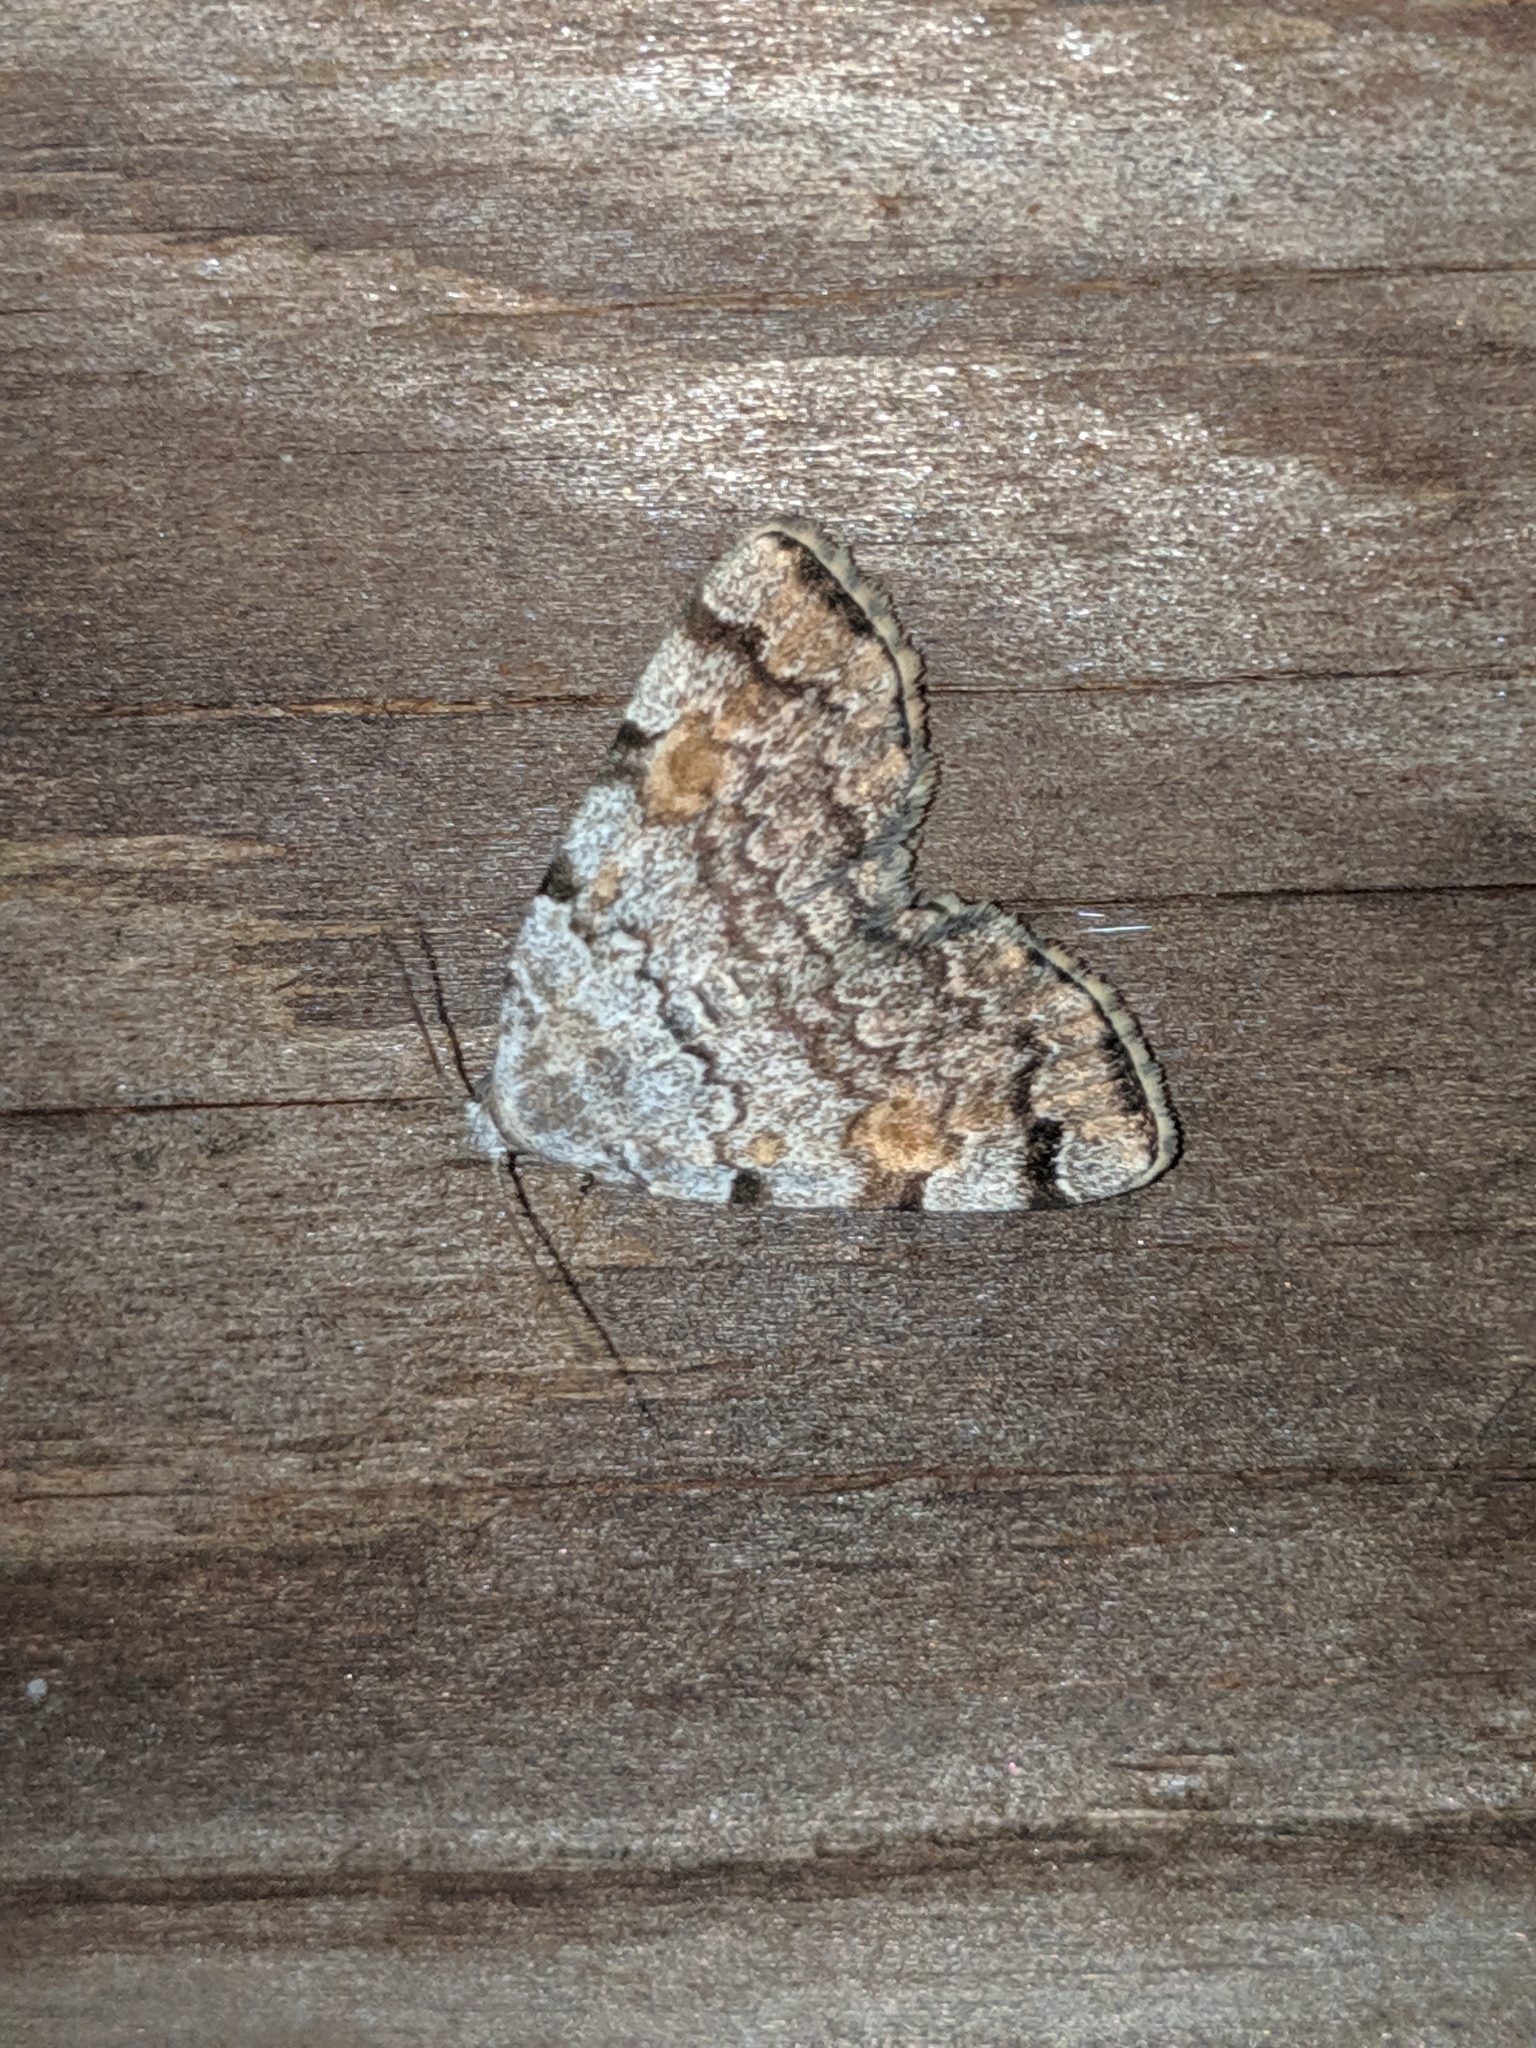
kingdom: Animalia
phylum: Arthropoda
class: Insecta
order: Lepidoptera
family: Erebidae
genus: Idia
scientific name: Idia americalis
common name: American idia moth
